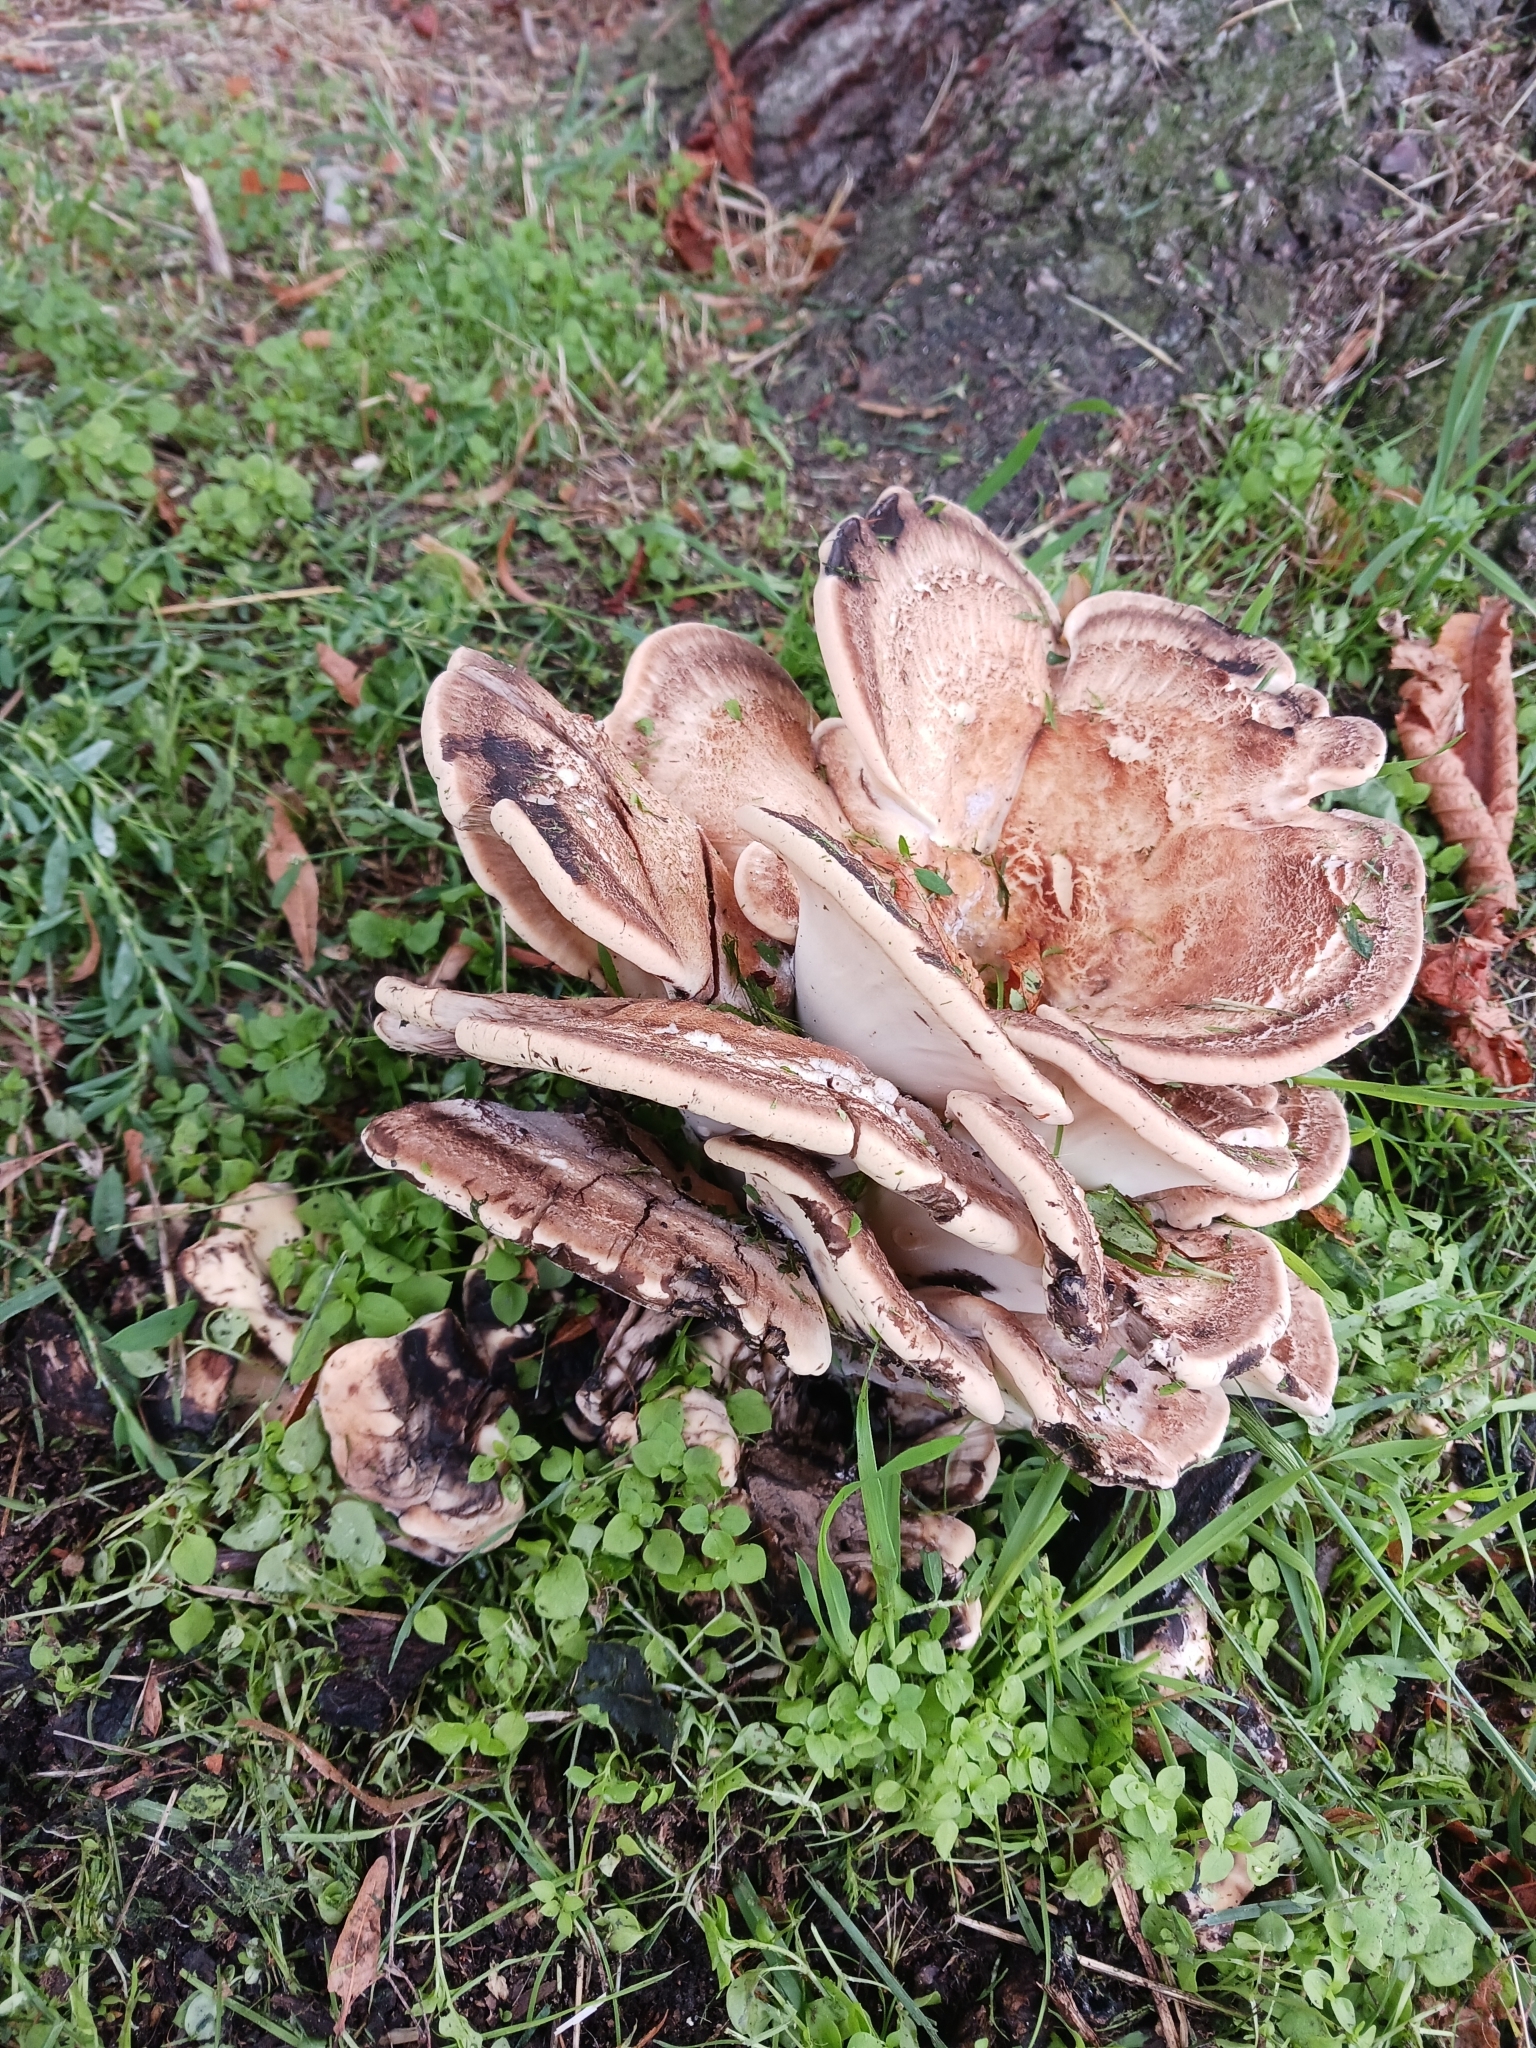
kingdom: Fungi
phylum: Basidiomycota
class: Agaricomycetes
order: Polyporales
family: Meripilaceae
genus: Meripilus
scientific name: Meripilus giganteus
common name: Giant polypore
